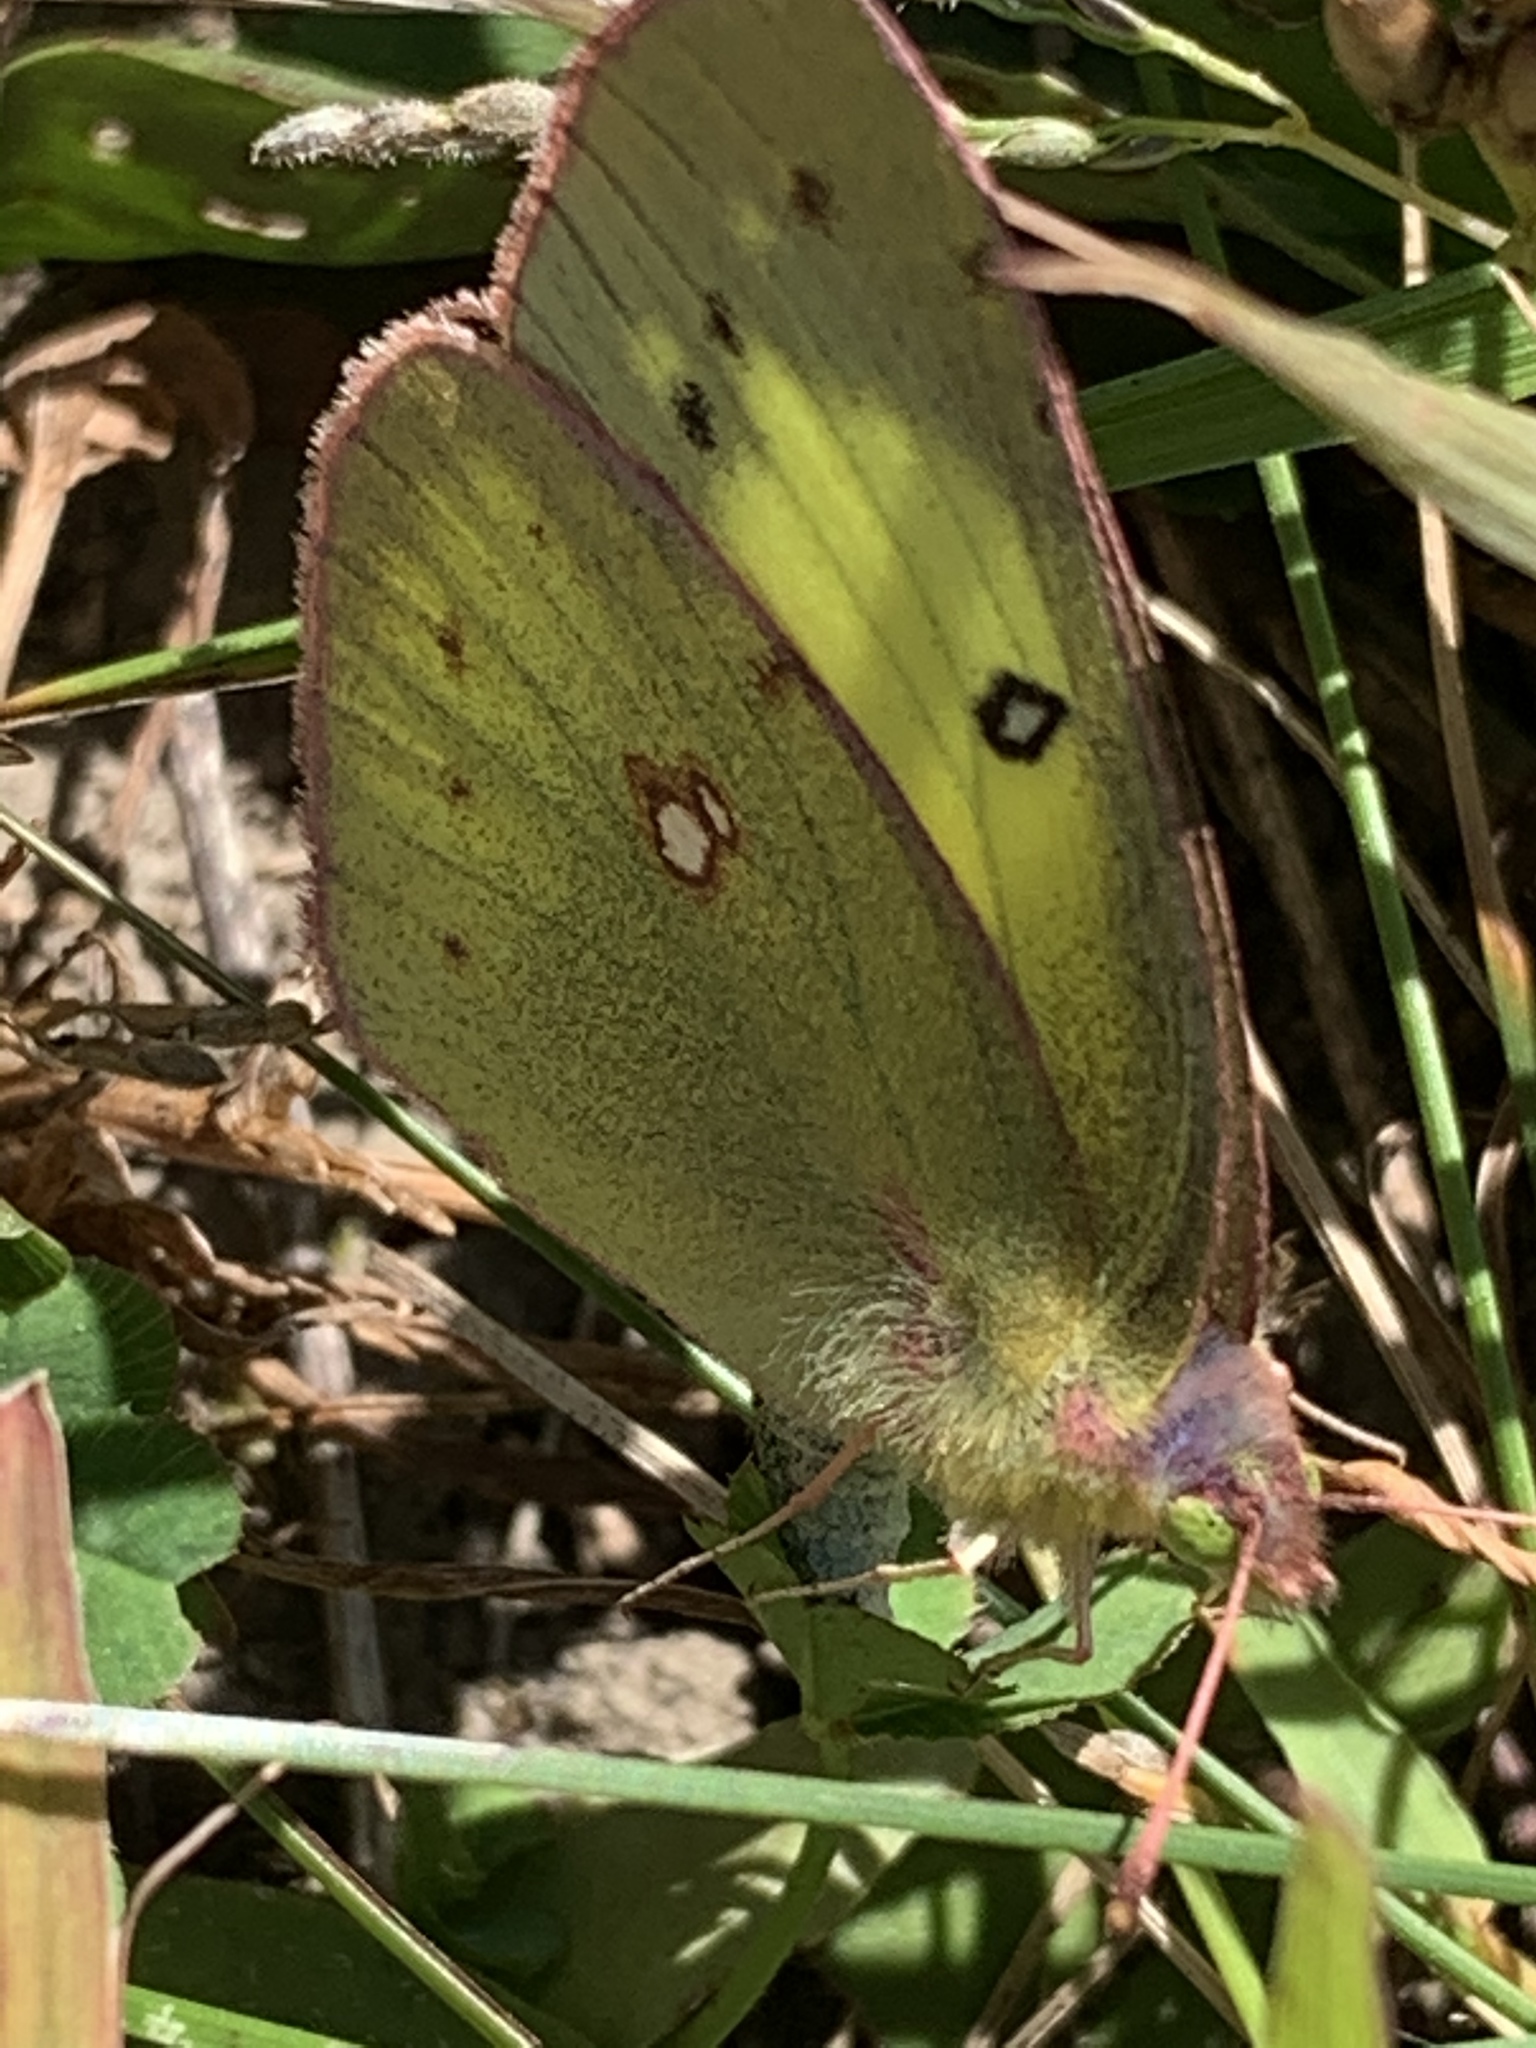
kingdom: Animalia
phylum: Arthropoda
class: Insecta
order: Lepidoptera
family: Pieridae
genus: Colias
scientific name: Colias philodice
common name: Clouded sulphur
